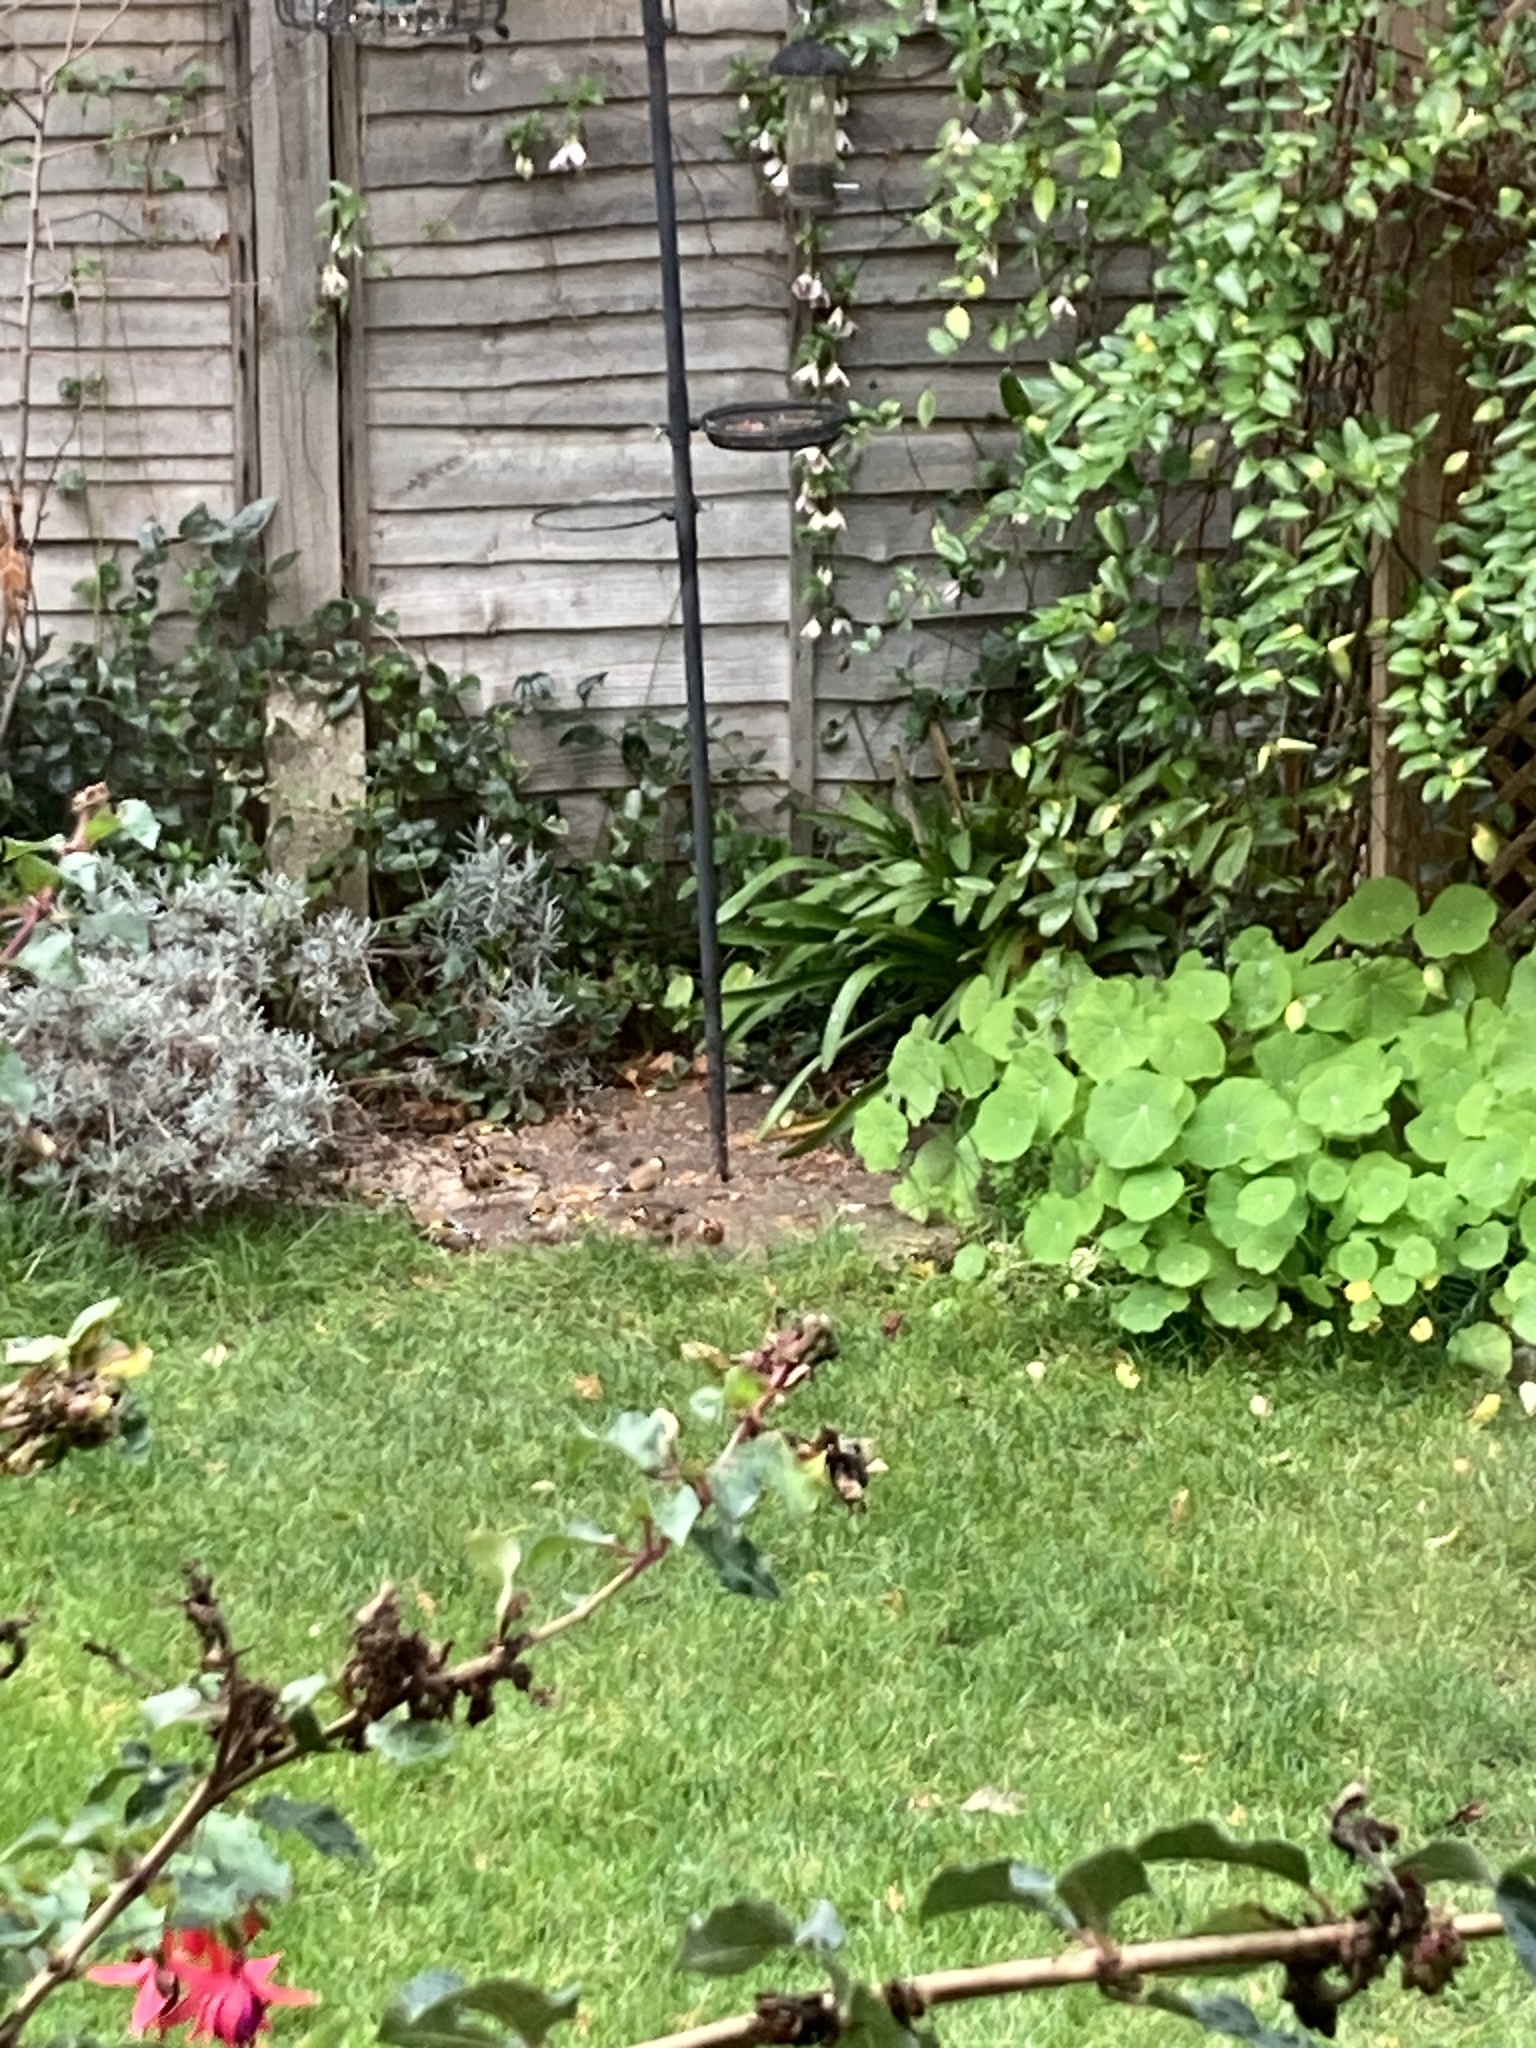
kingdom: Animalia
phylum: Chordata
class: Aves
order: Passeriformes
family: Fringillidae
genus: Carduelis
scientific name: Carduelis carduelis
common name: European goldfinch
